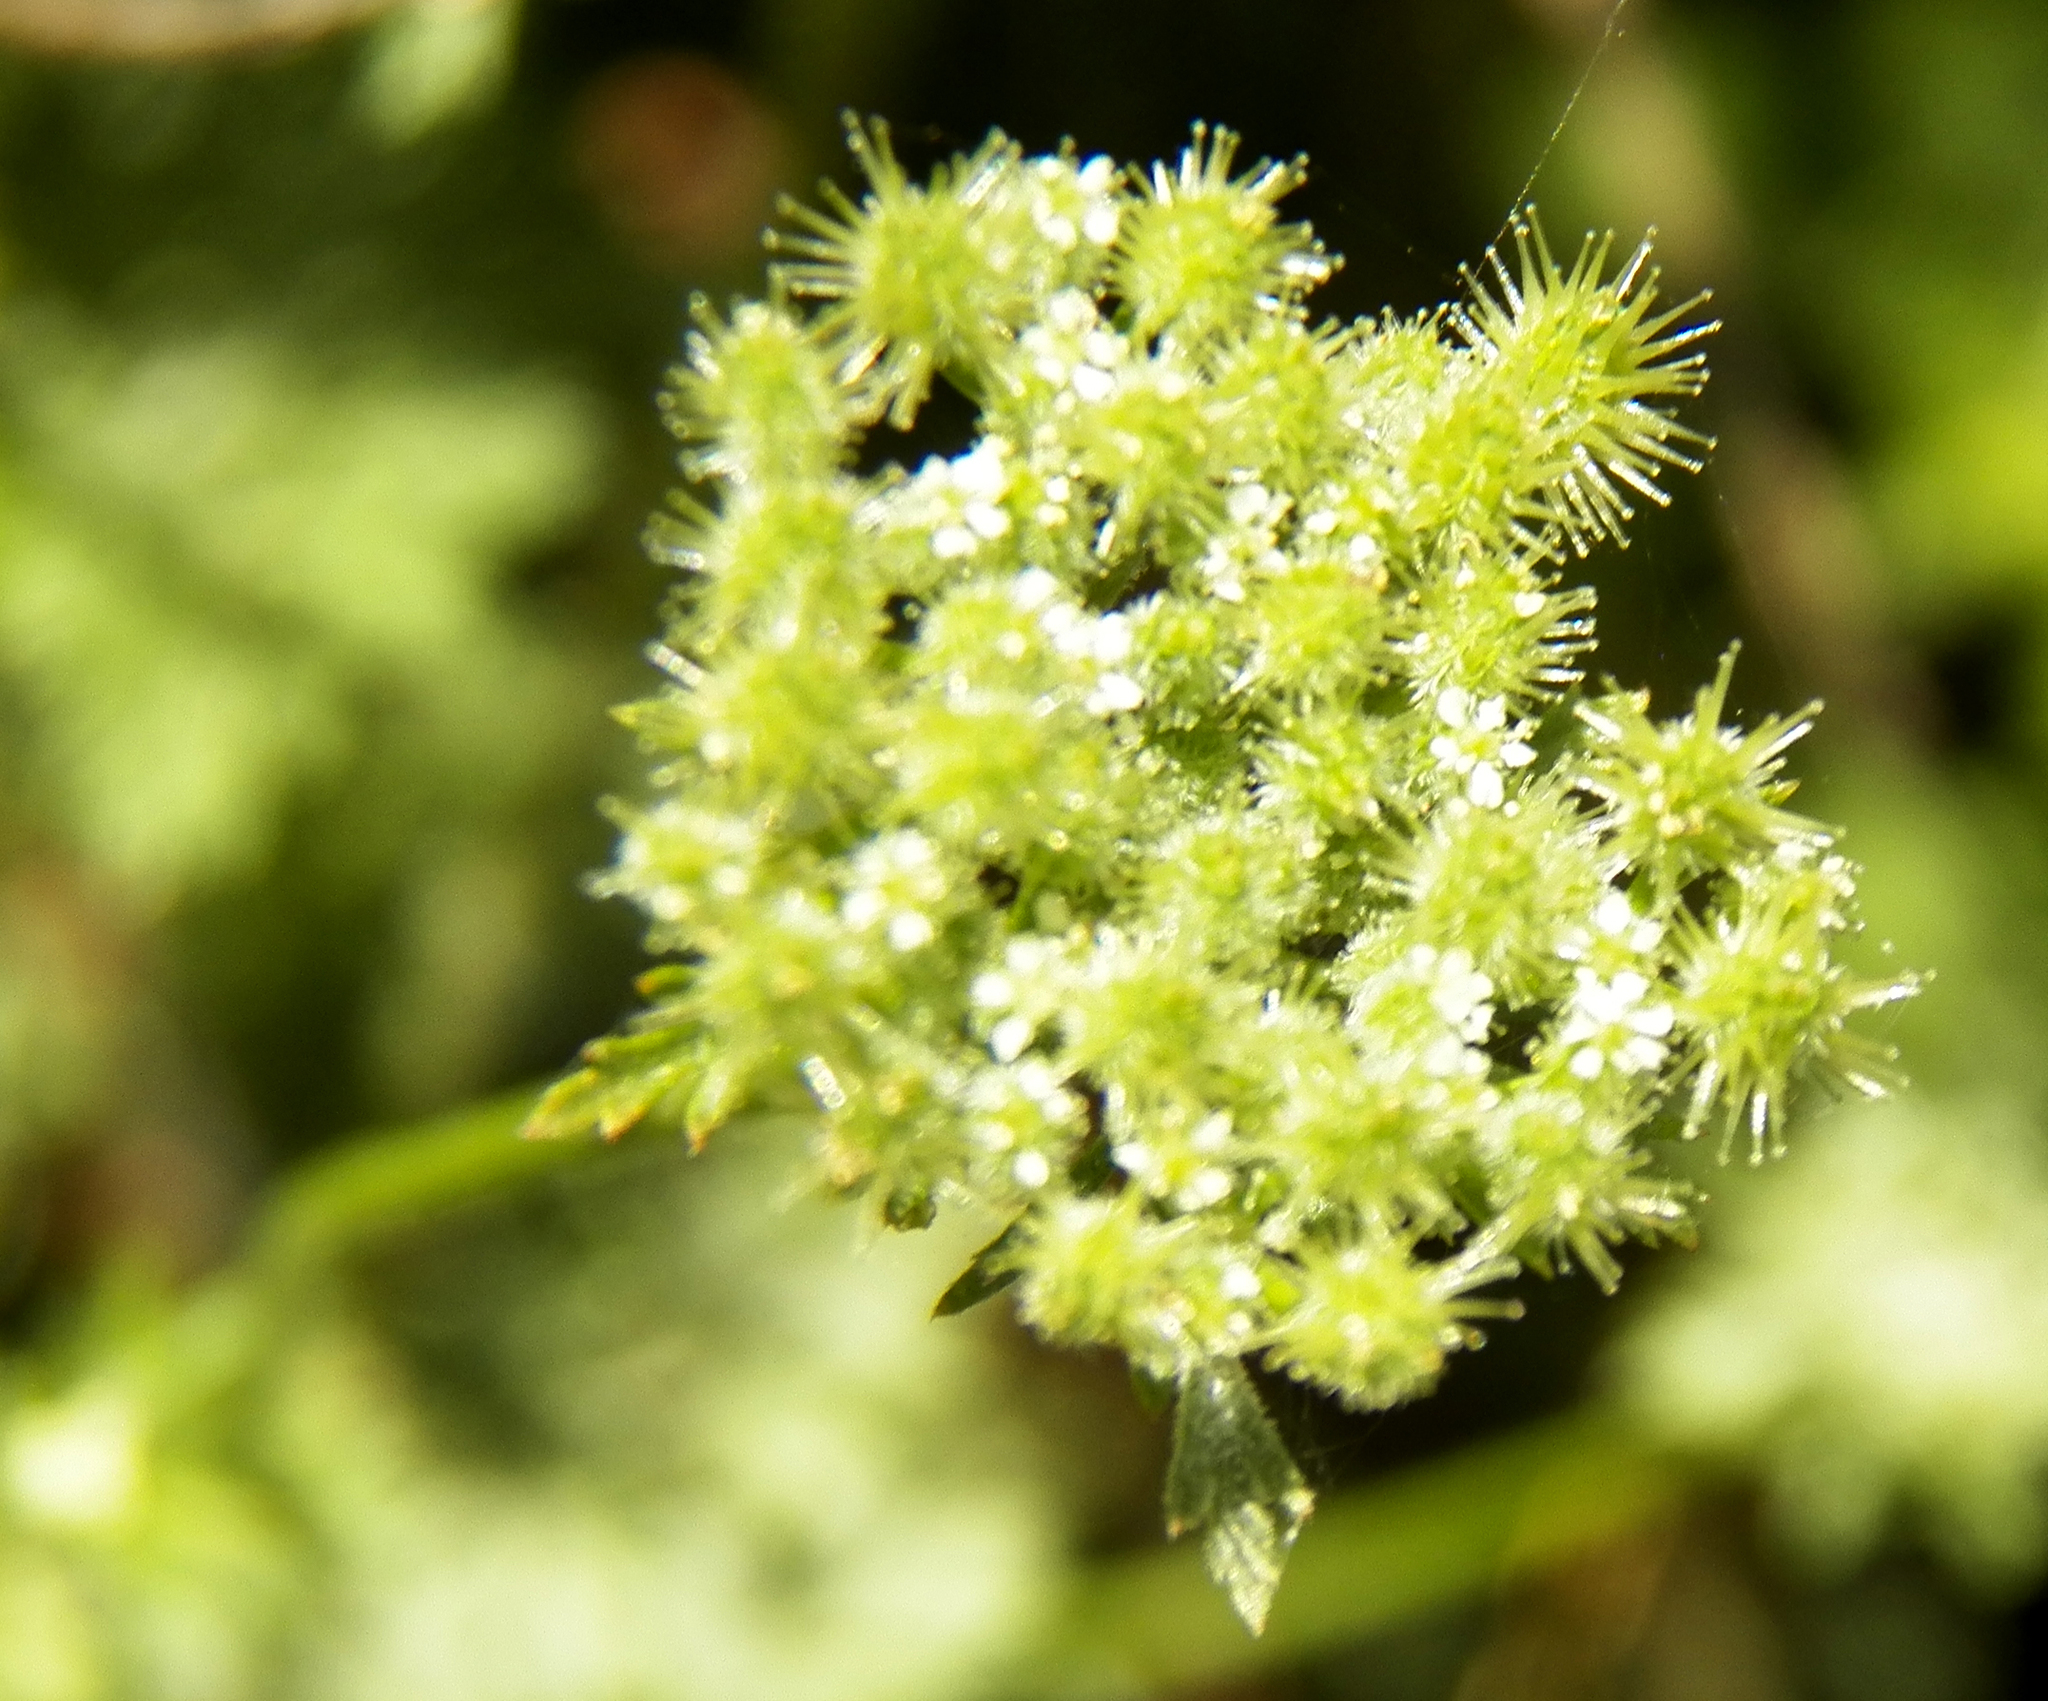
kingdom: Plantae
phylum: Tracheophyta
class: Magnoliopsida
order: Apiales
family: Apiaceae
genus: Daucus
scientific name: Daucus pusillus
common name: Southwest wild carrot
